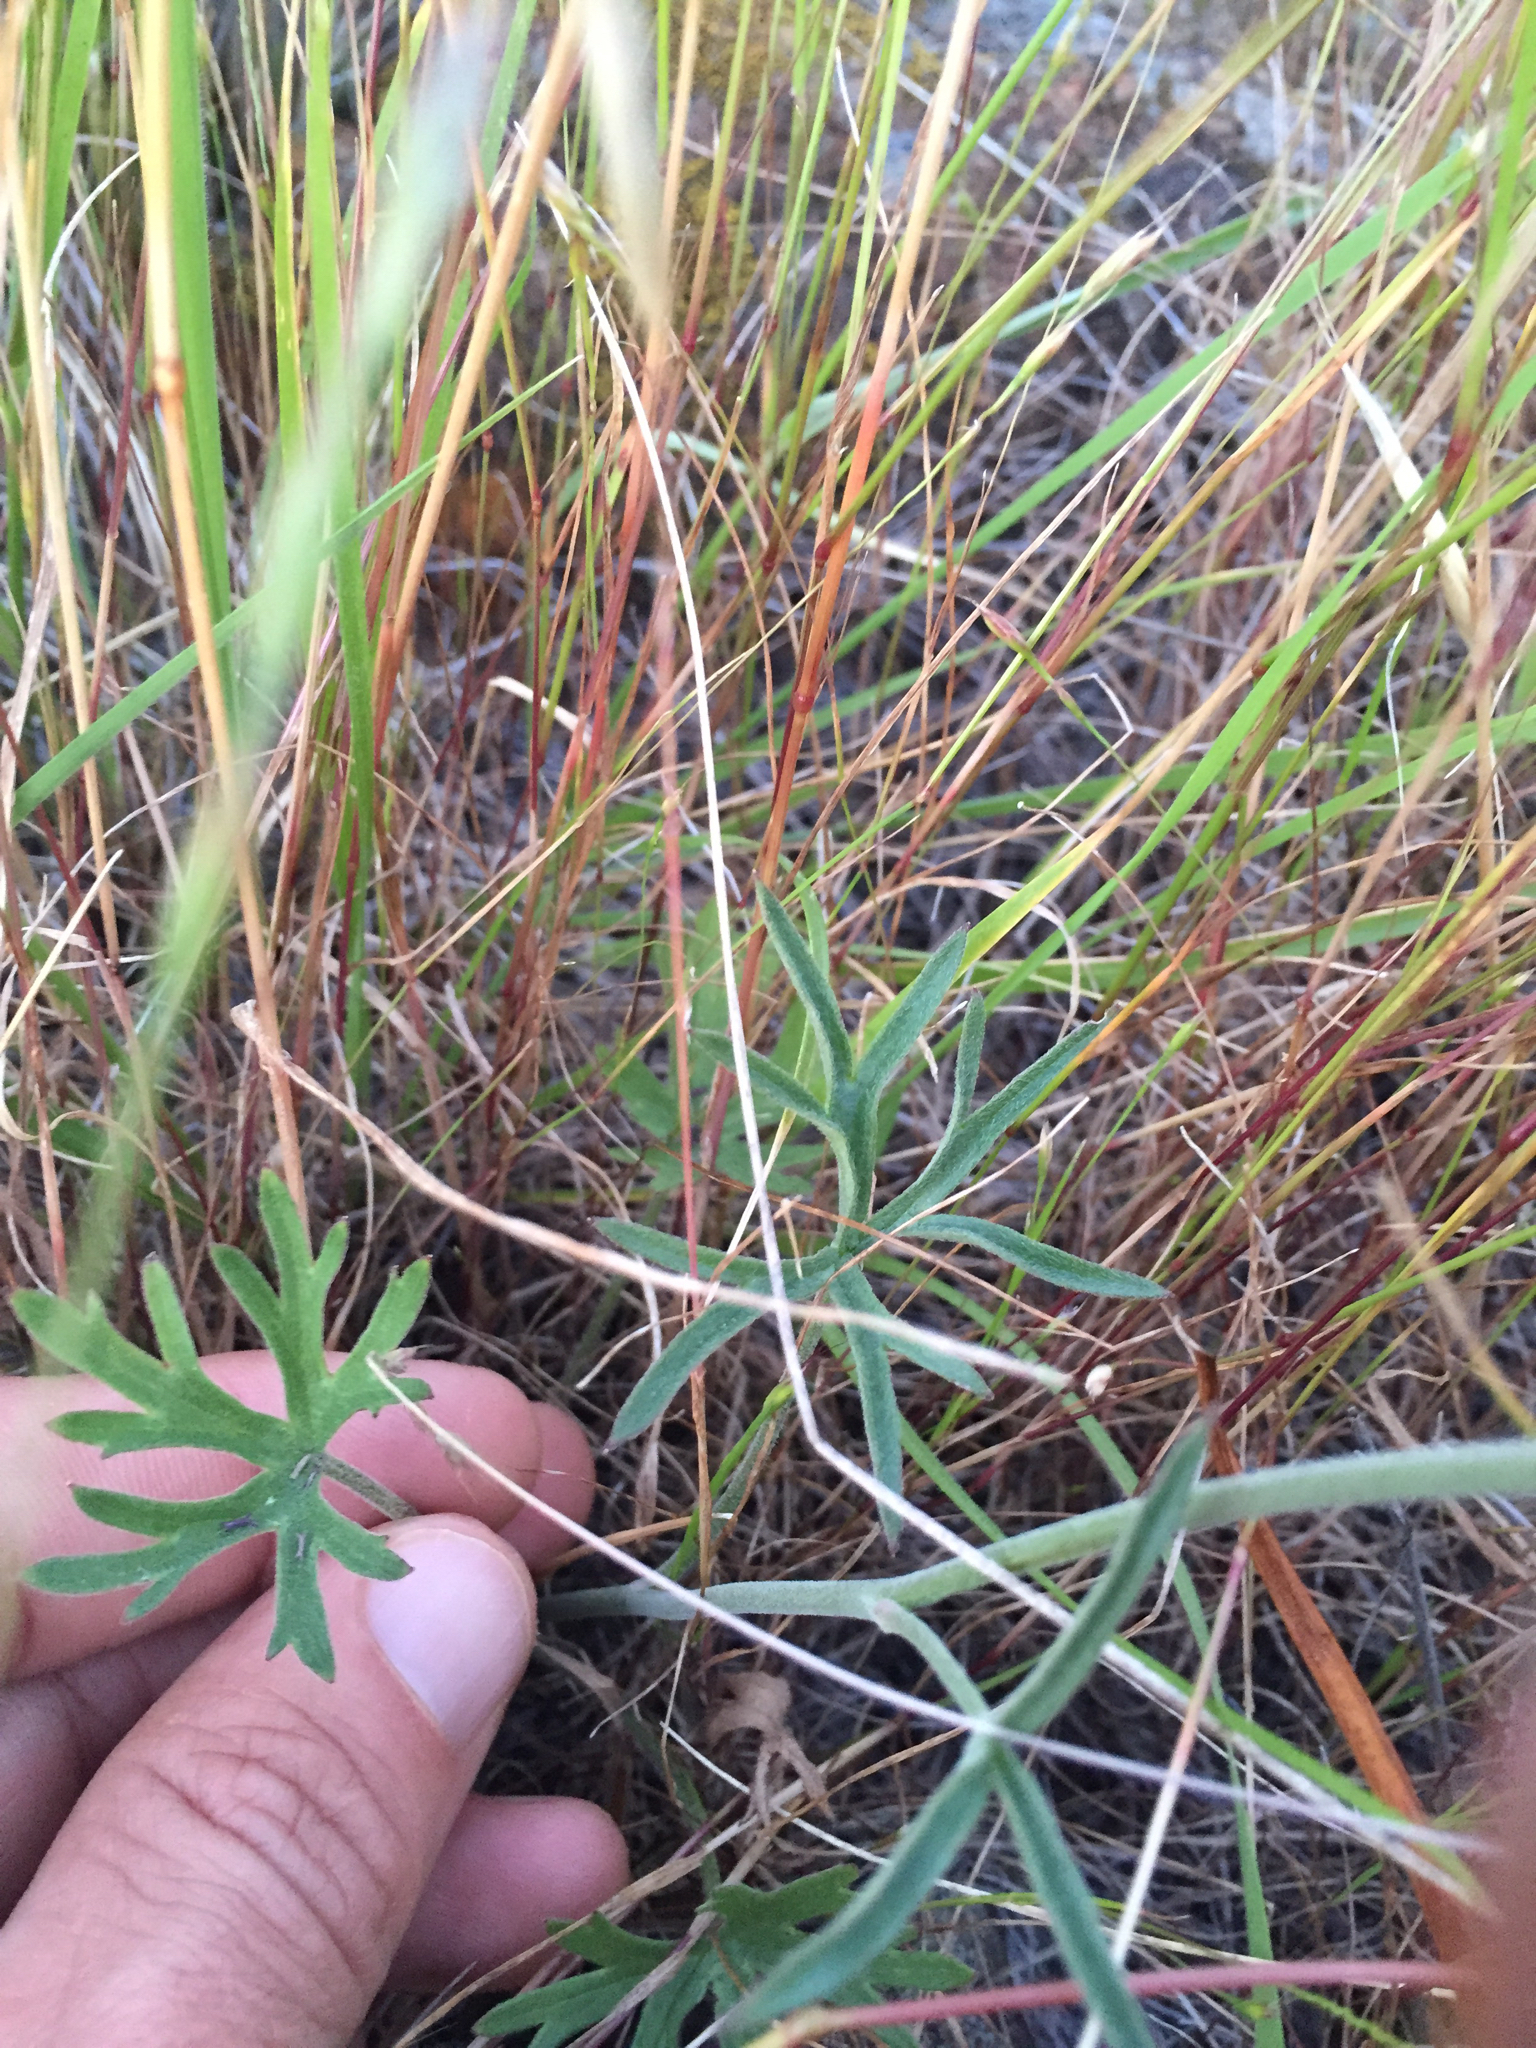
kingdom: Plantae
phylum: Tracheophyta
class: Magnoliopsida
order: Ranunculales
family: Ranunculaceae
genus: Delphinium
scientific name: Delphinium variegatum
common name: Royal larkspur
